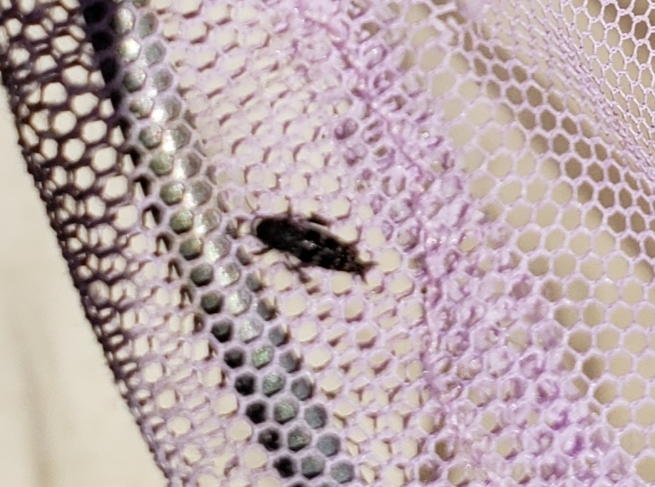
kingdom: Animalia
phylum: Arthropoda
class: Insecta
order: Orthoptera
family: Tridactylidae
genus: Ellipes
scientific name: Ellipes minuta
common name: Minute pygmy locust
